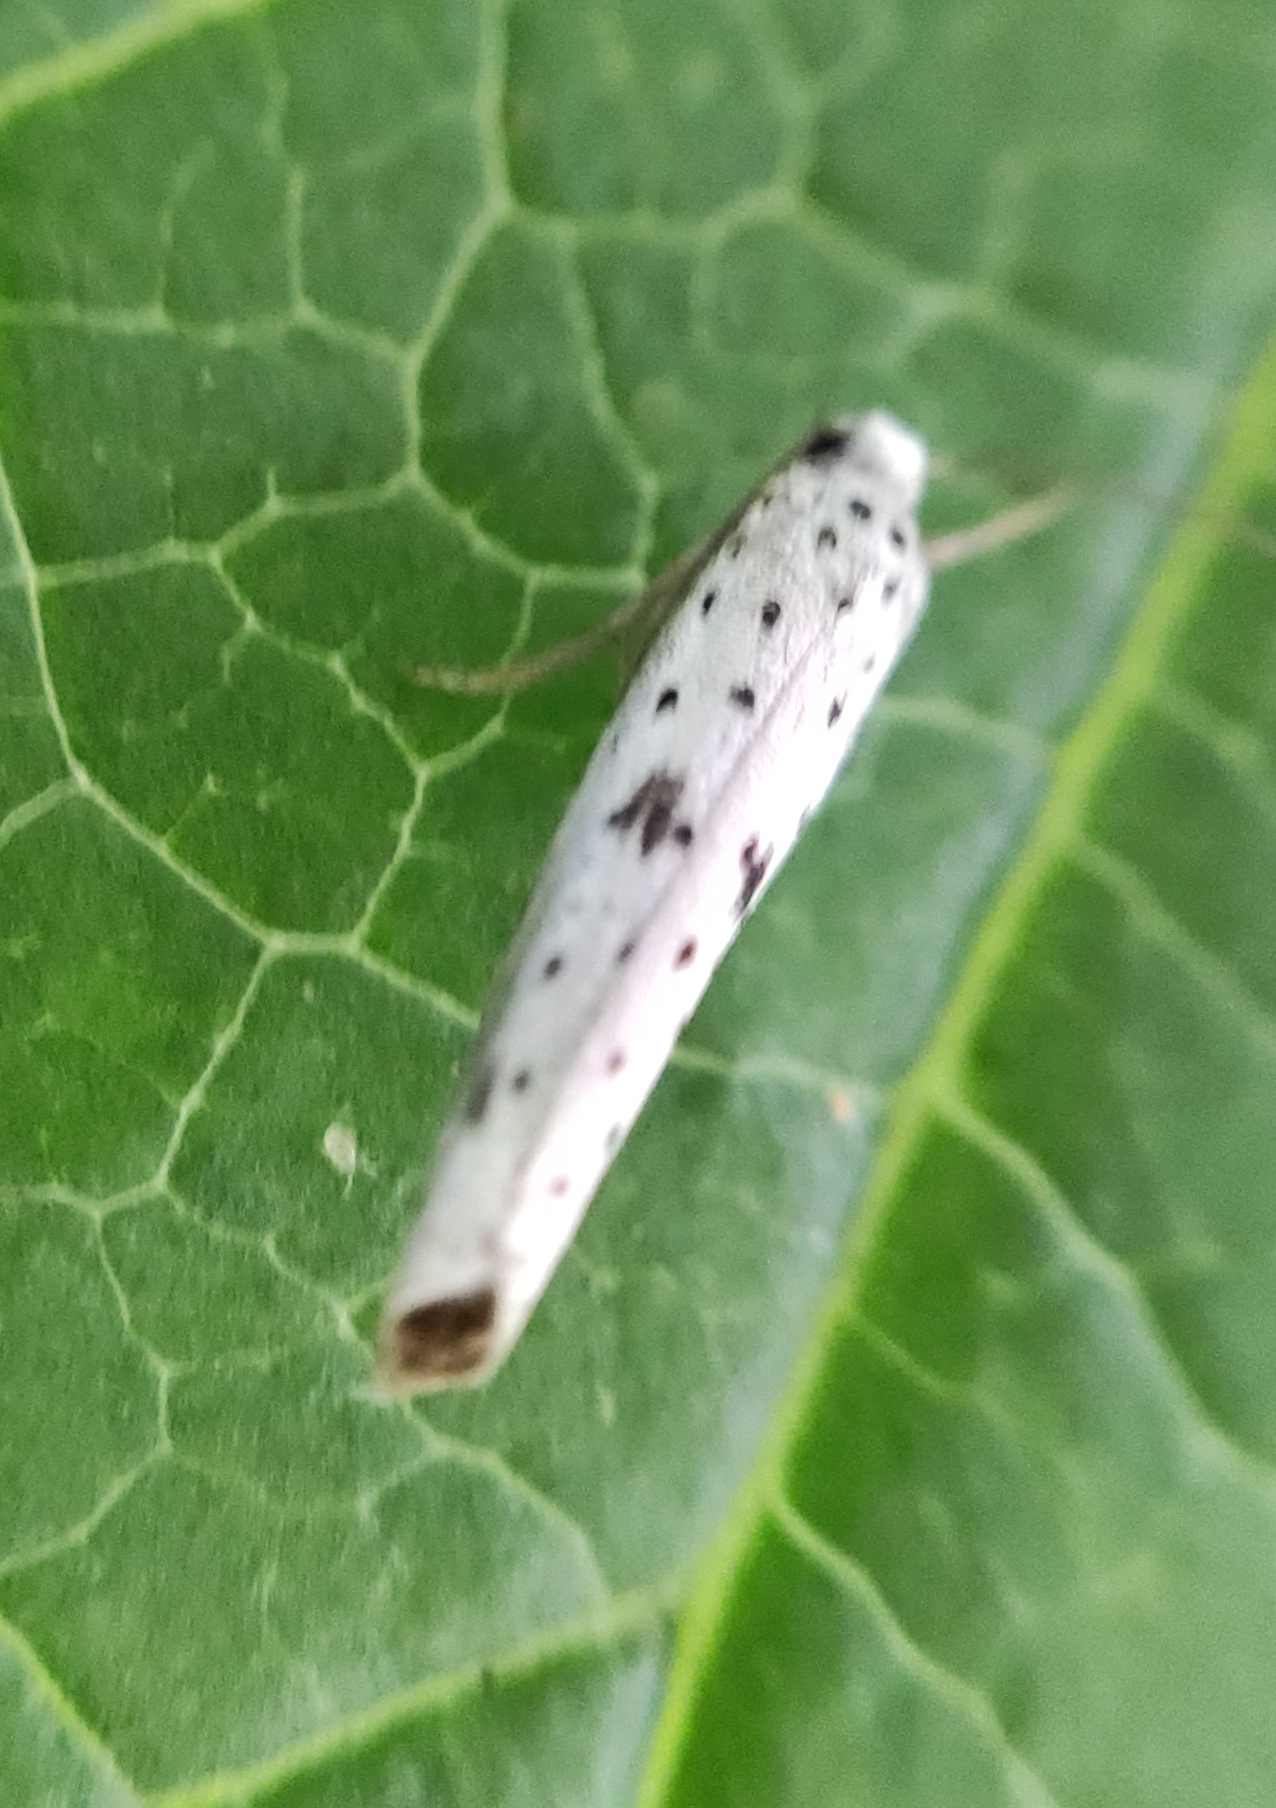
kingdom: Animalia
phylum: Arthropoda
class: Insecta
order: Lepidoptera
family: Yponomeutidae
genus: Yponomeuta
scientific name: Yponomeuta plumbella
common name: Black-tipped ermine
